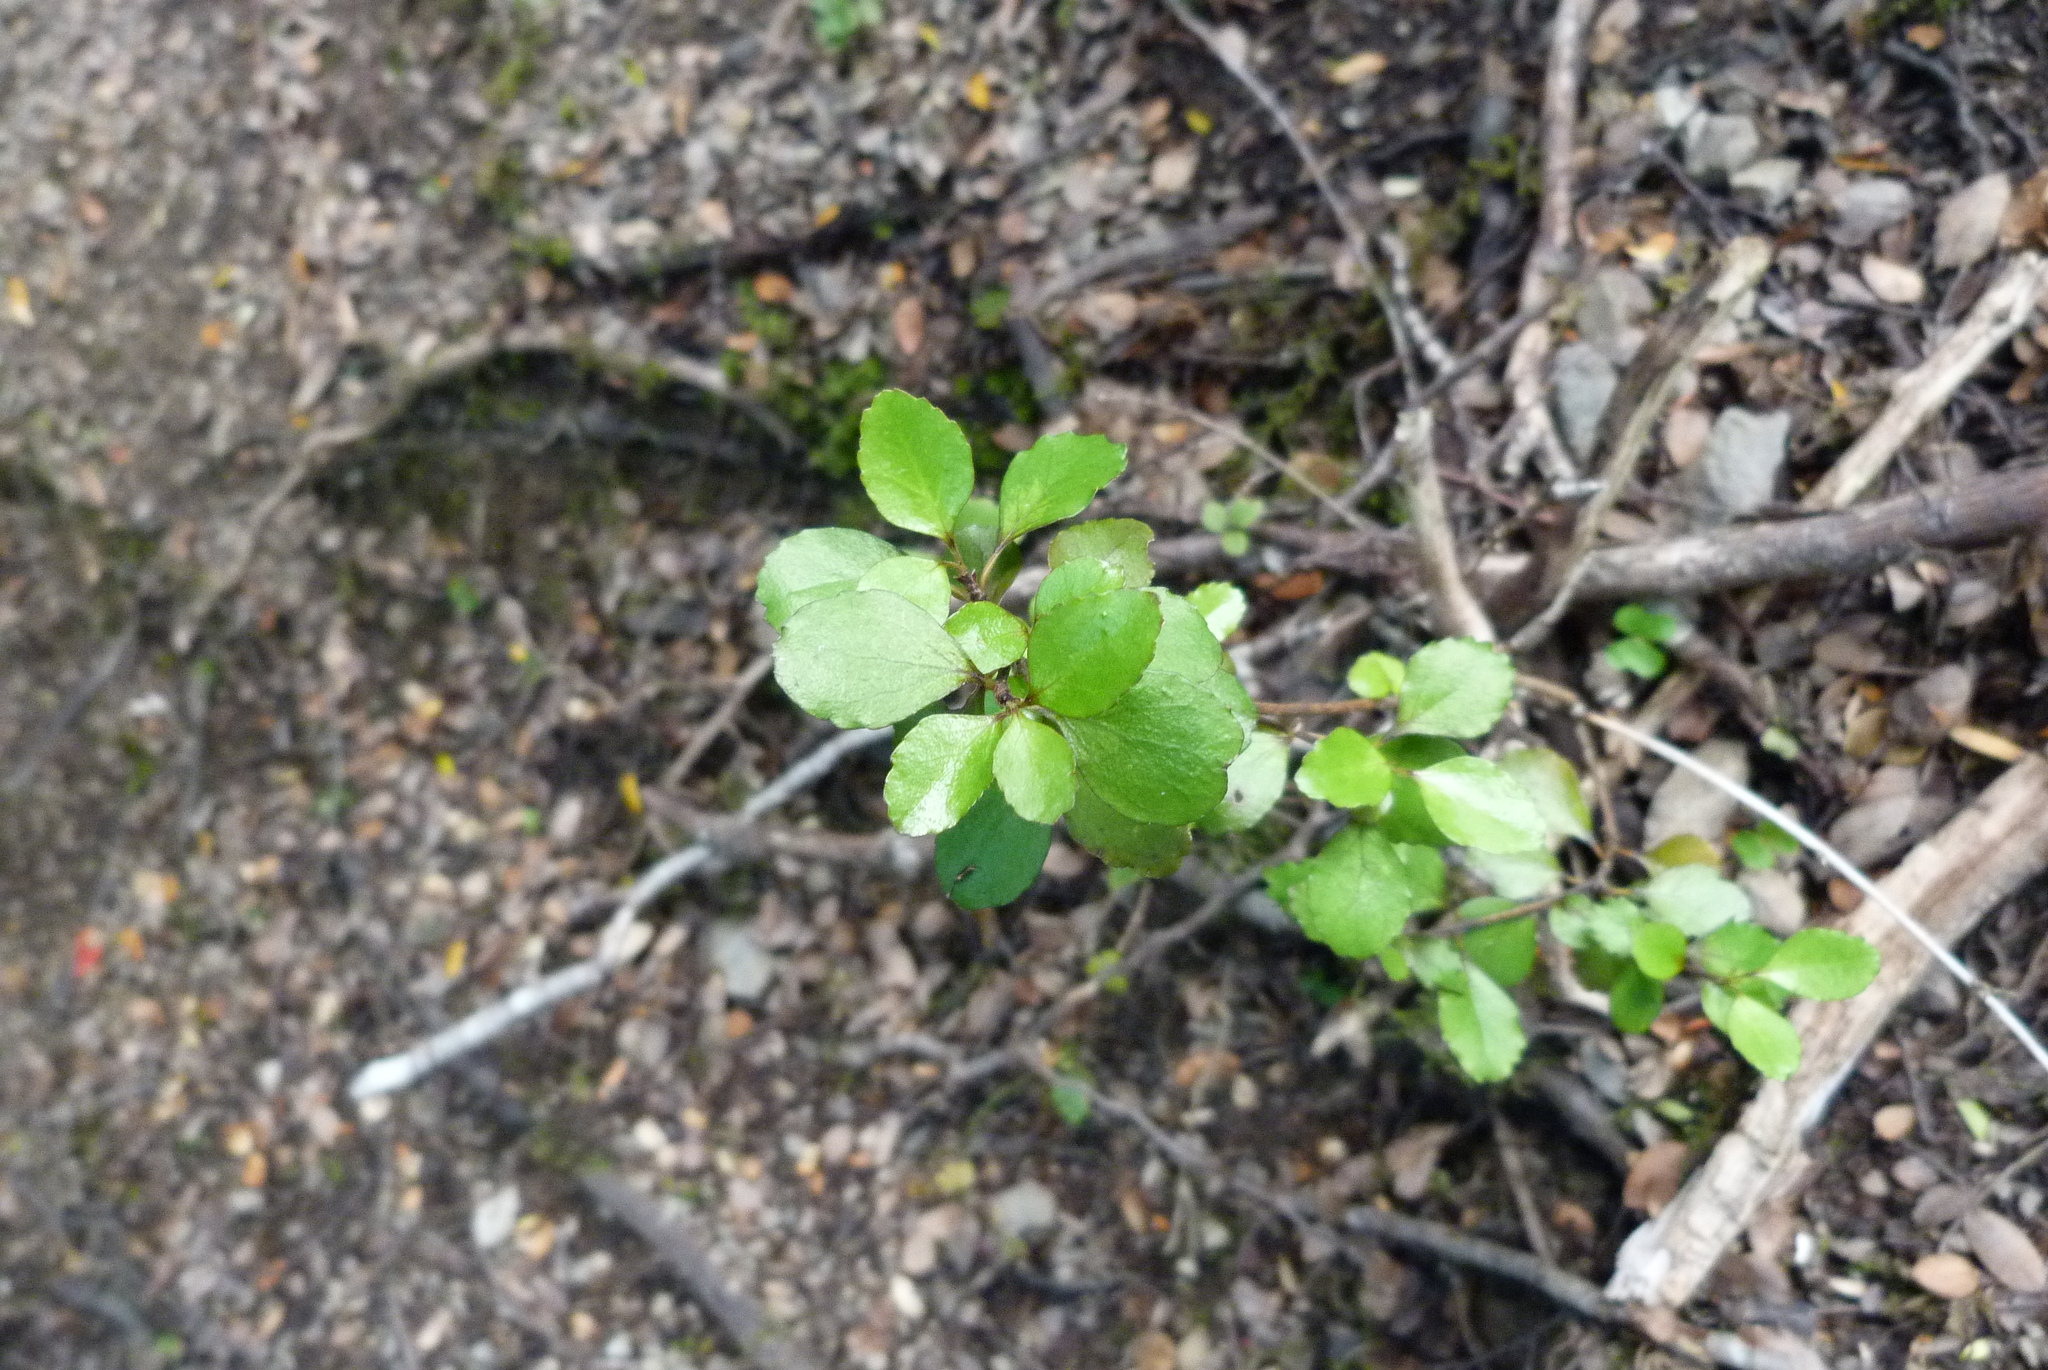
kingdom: Plantae
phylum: Tracheophyta
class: Magnoliopsida
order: Apiales
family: Araliaceae
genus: Raukaua
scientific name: Raukaua anomalus
